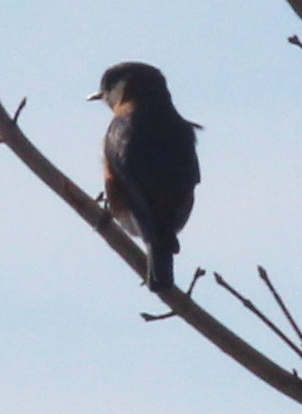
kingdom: Animalia
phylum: Chordata
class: Aves
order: Passeriformes
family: Turdidae
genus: Sialia
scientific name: Sialia sialis
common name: Eastern bluebird
